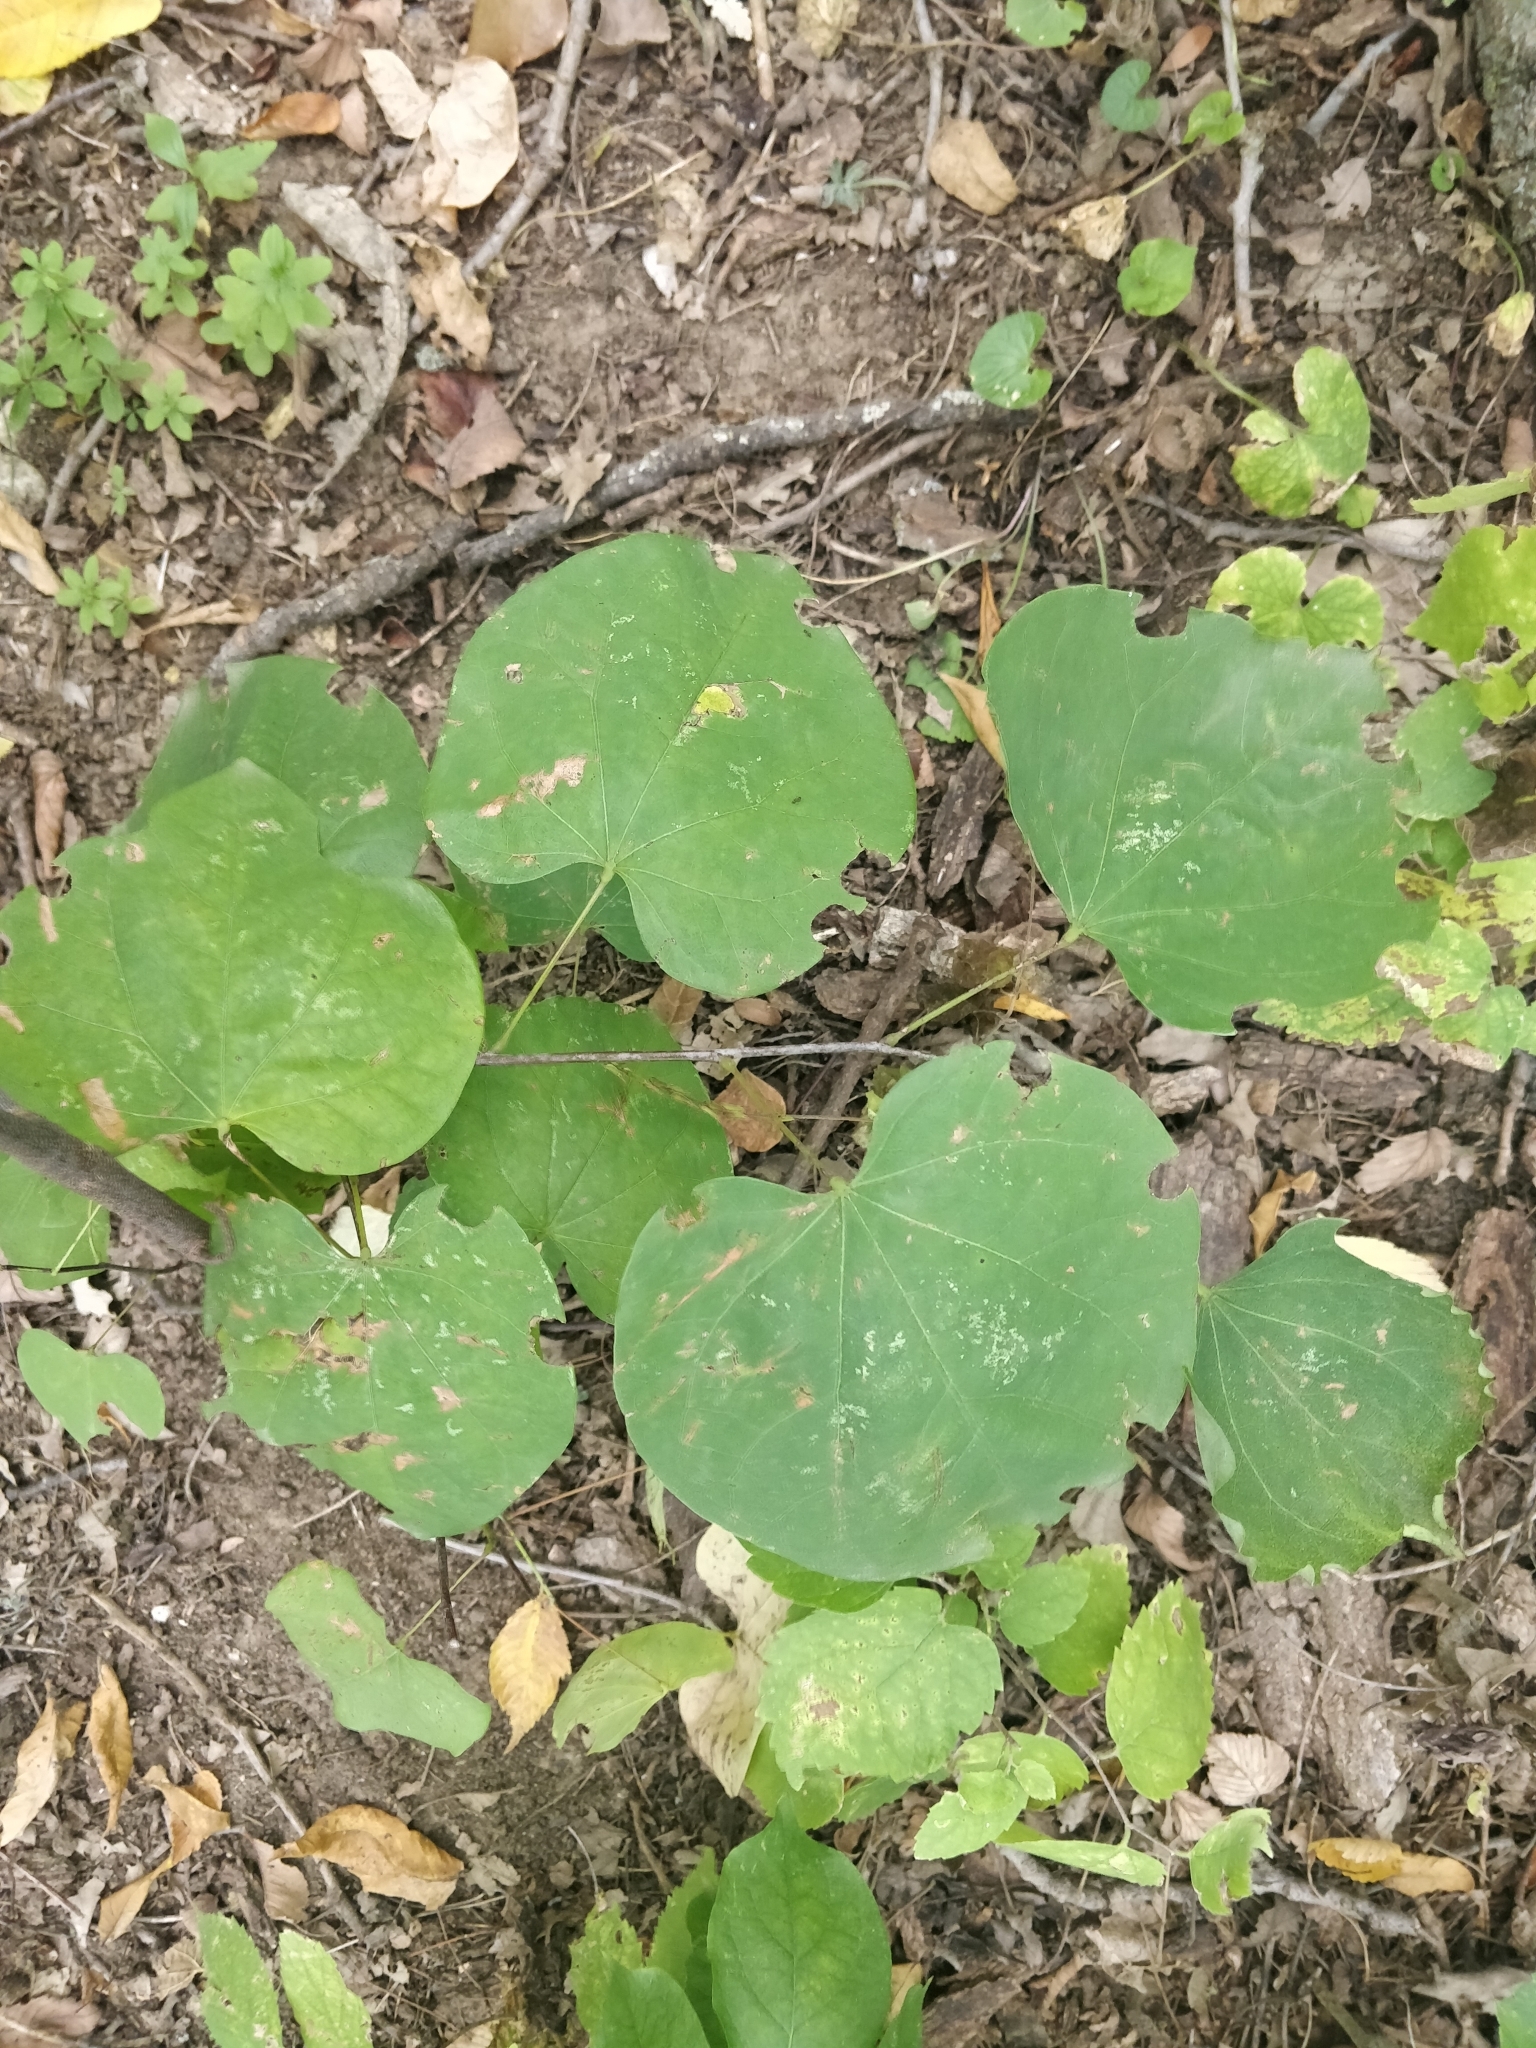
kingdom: Plantae
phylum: Tracheophyta
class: Magnoliopsida
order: Fabales
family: Fabaceae
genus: Cercis
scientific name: Cercis canadensis
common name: Eastern redbud
